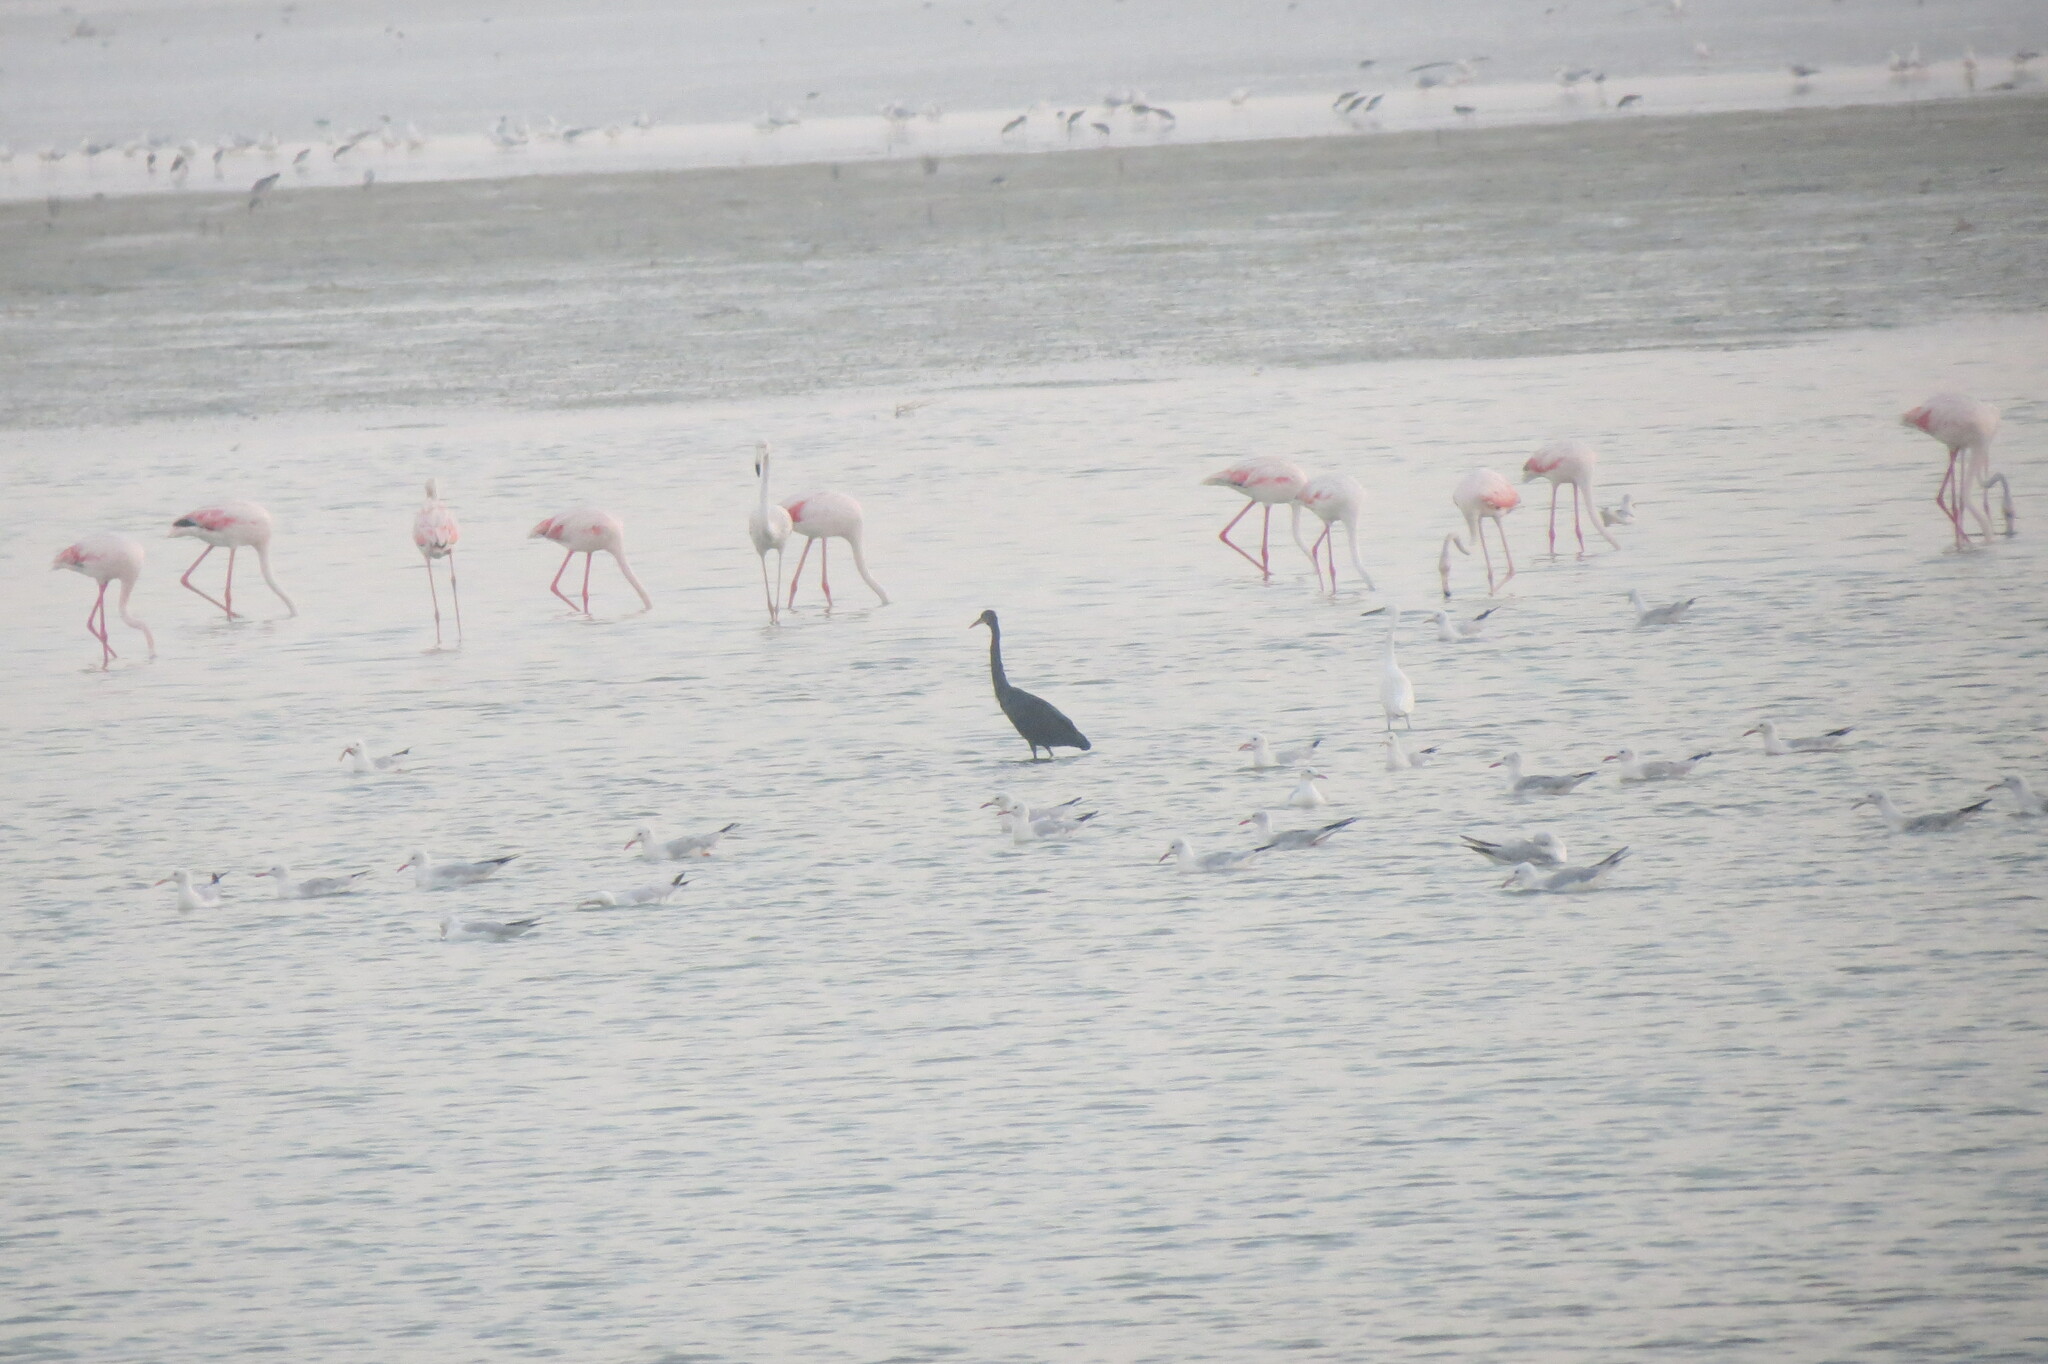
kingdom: Animalia
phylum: Chordata
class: Aves
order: Pelecaniformes
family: Ardeidae
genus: Egretta
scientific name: Egretta gularis
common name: Western reef-heron
